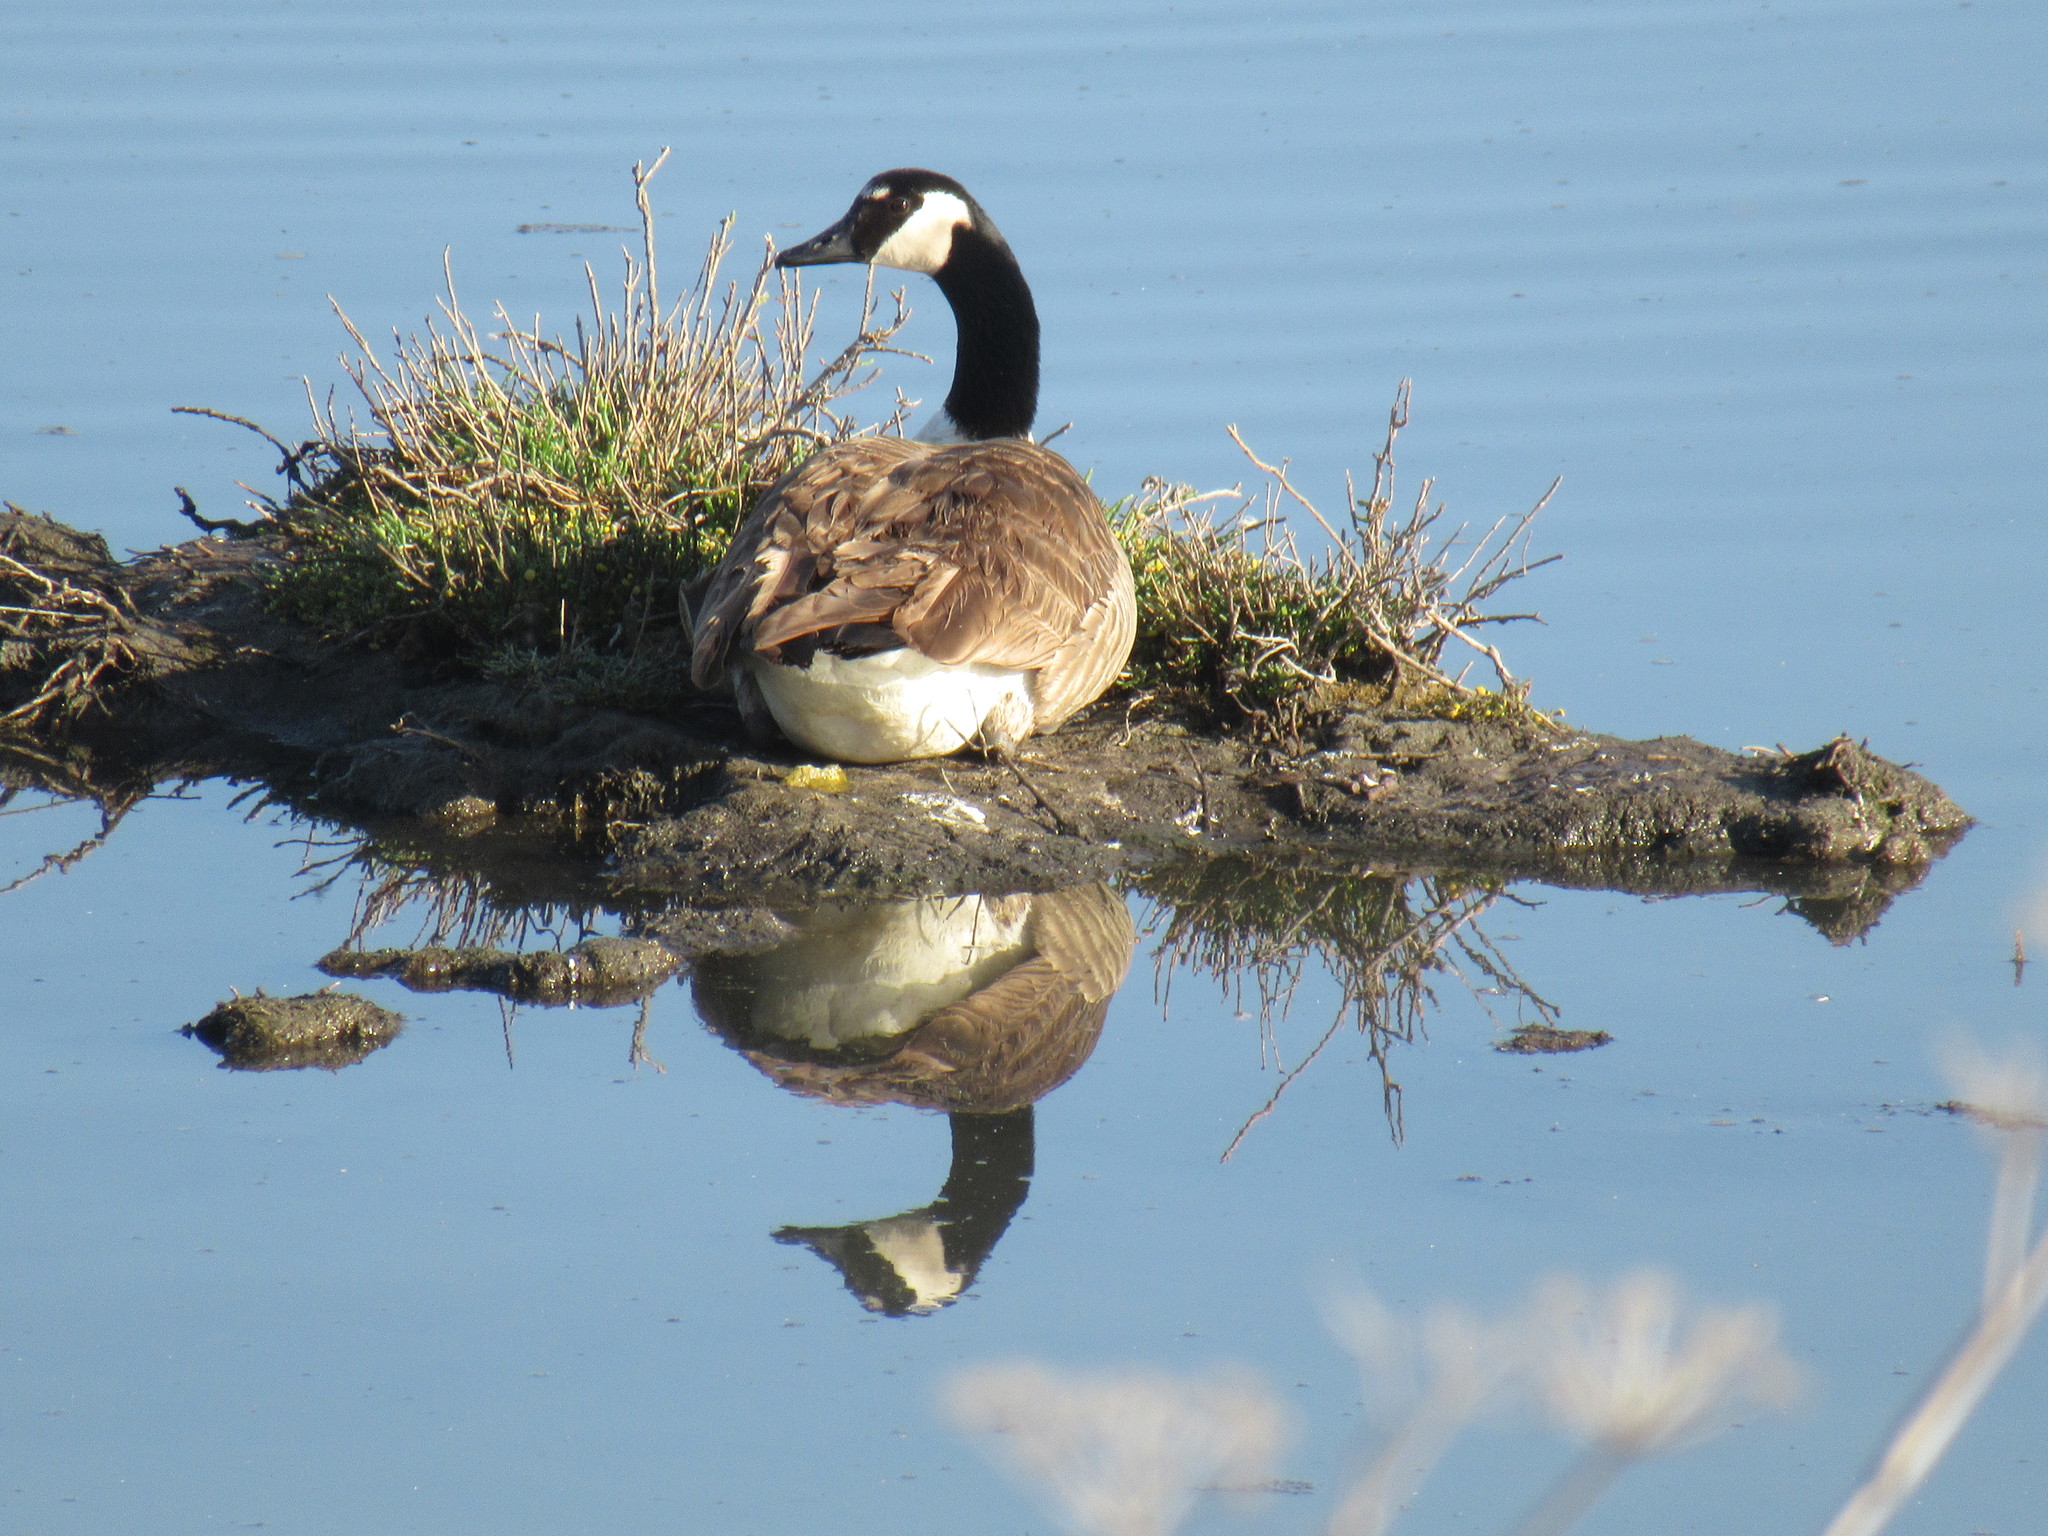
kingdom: Animalia
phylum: Chordata
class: Aves
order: Anseriformes
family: Anatidae
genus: Branta
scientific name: Branta canadensis
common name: Canada goose
